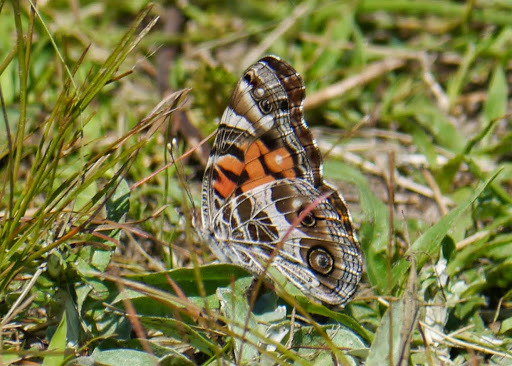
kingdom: Animalia
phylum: Arthropoda
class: Insecta
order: Lepidoptera
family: Nymphalidae
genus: Vanessa
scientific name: Vanessa virginiensis
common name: American lady
